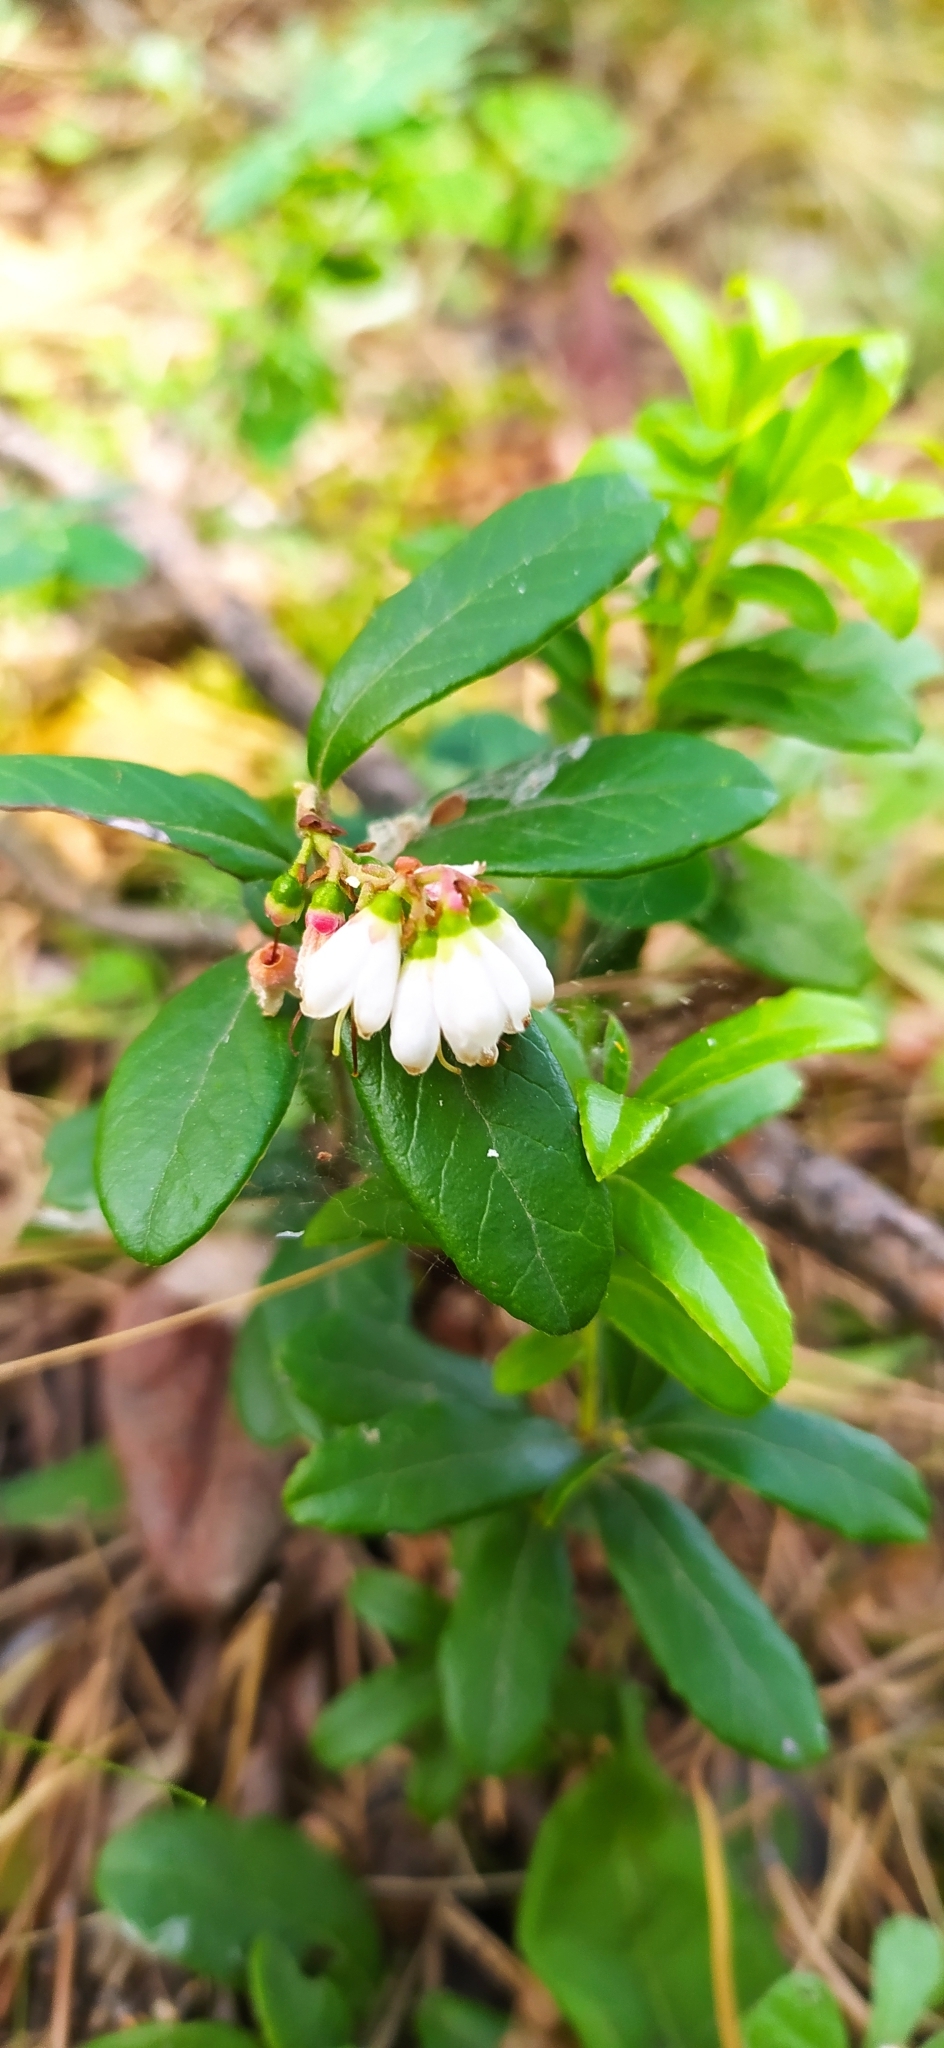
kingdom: Plantae
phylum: Tracheophyta
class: Magnoliopsida
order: Ericales
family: Ericaceae
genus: Vaccinium
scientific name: Vaccinium vitis-idaea
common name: Cowberry
